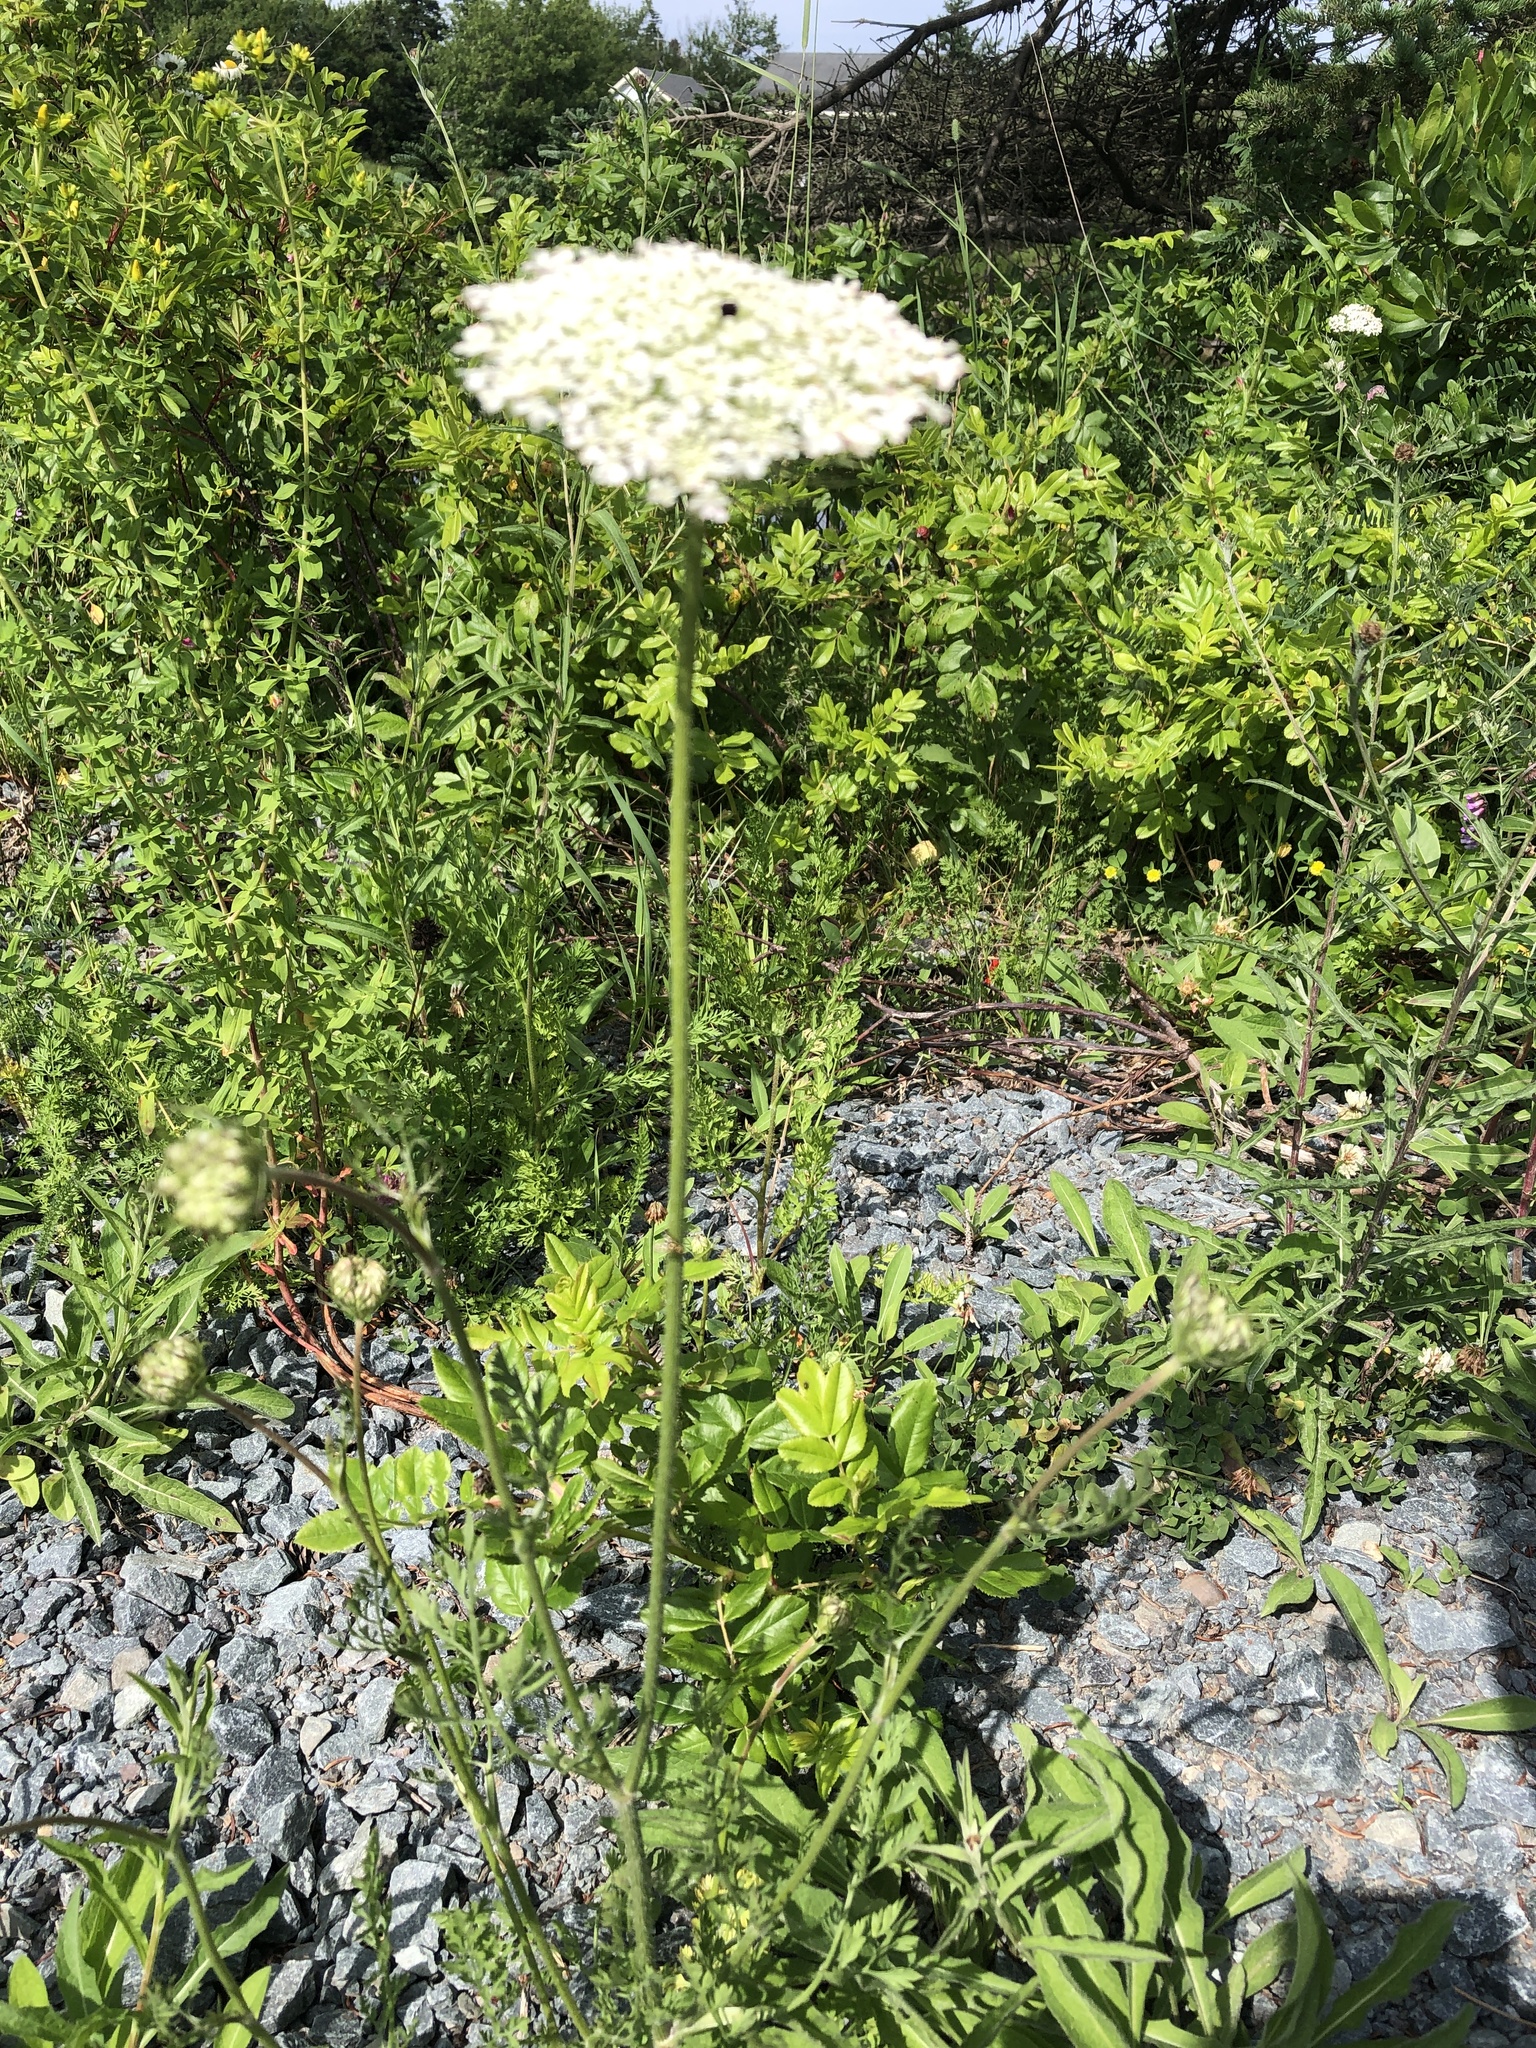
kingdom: Plantae
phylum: Tracheophyta
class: Magnoliopsida
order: Apiales
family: Apiaceae
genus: Daucus
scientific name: Daucus carota
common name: Wild carrot
